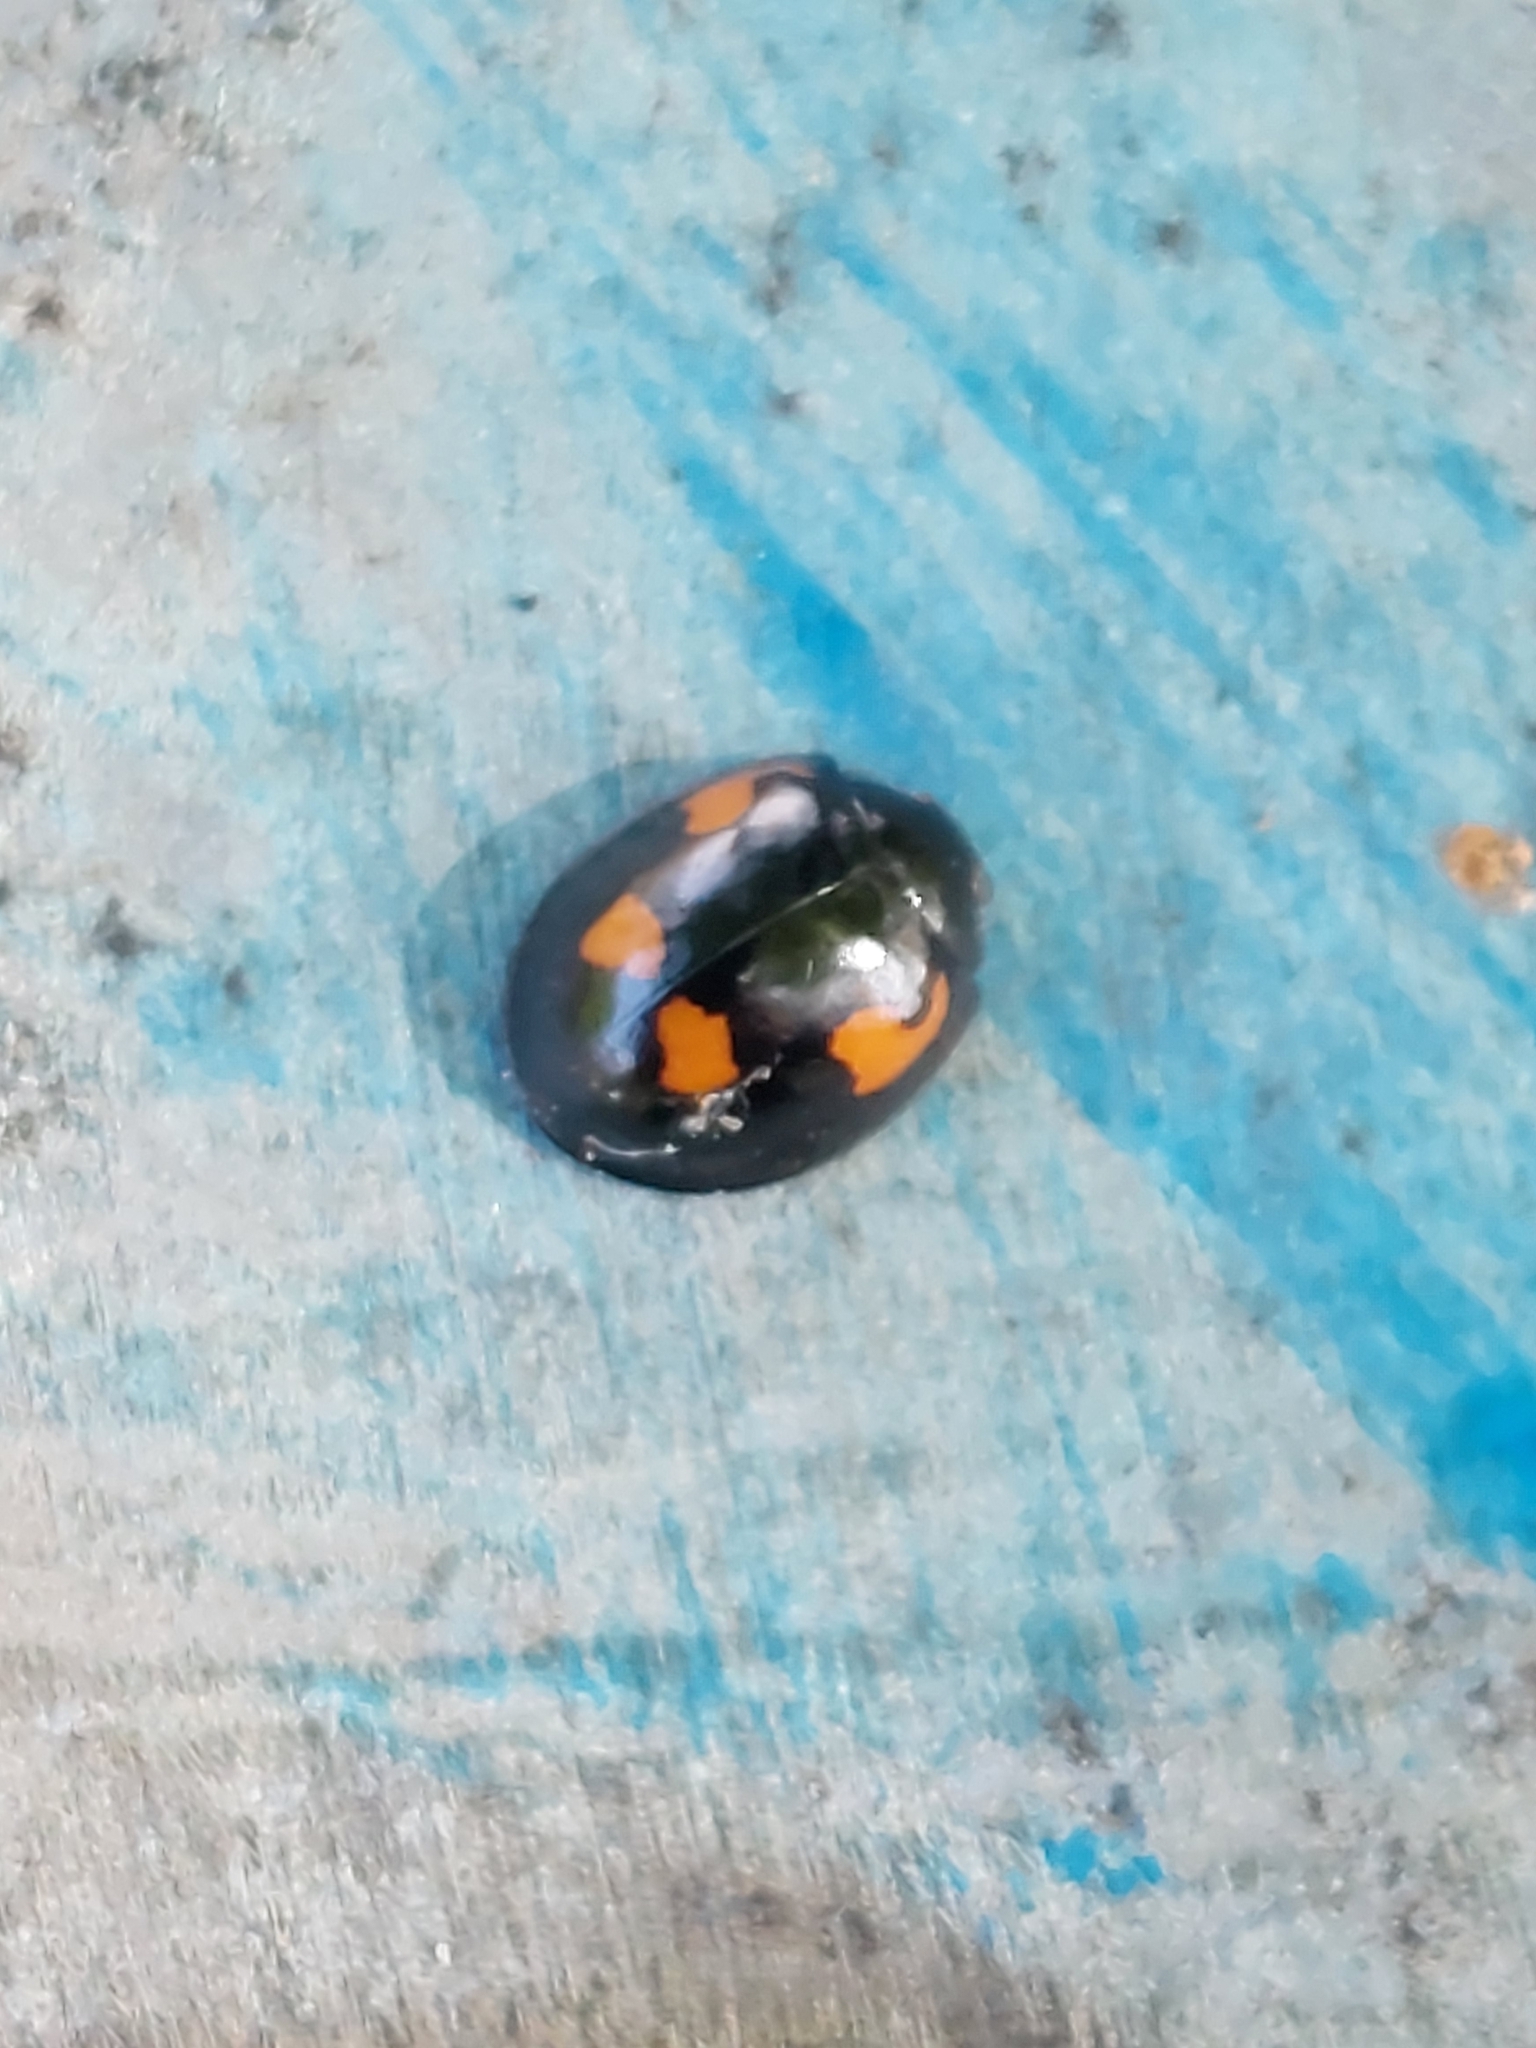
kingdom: Animalia
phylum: Arthropoda
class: Insecta
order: Coleoptera
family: Coccinellidae
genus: Brumus
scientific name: Brumus quadripustulatus
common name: Ladybird beetle
